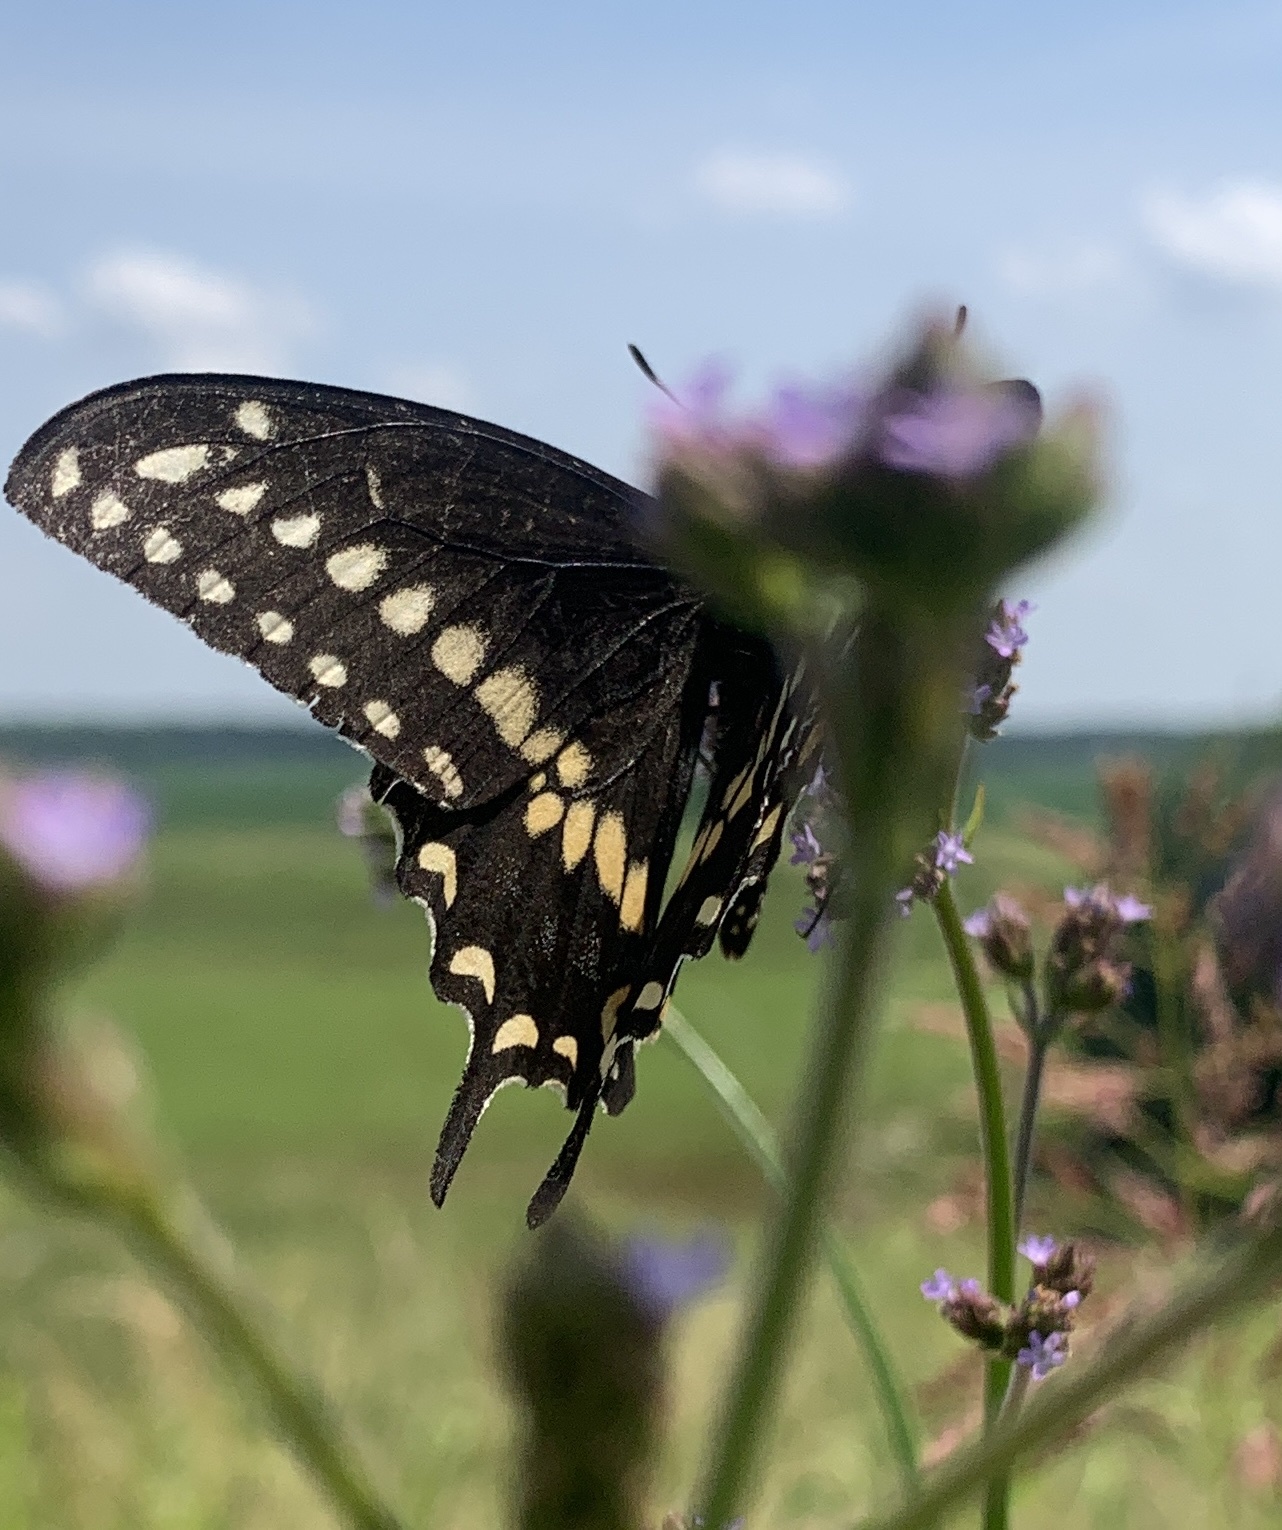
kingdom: Animalia
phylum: Arthropoda
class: Insecta
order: Lepidoptera
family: Papilionidae
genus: Papilio
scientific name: Papilio polyxenes
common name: Black swallowtail
